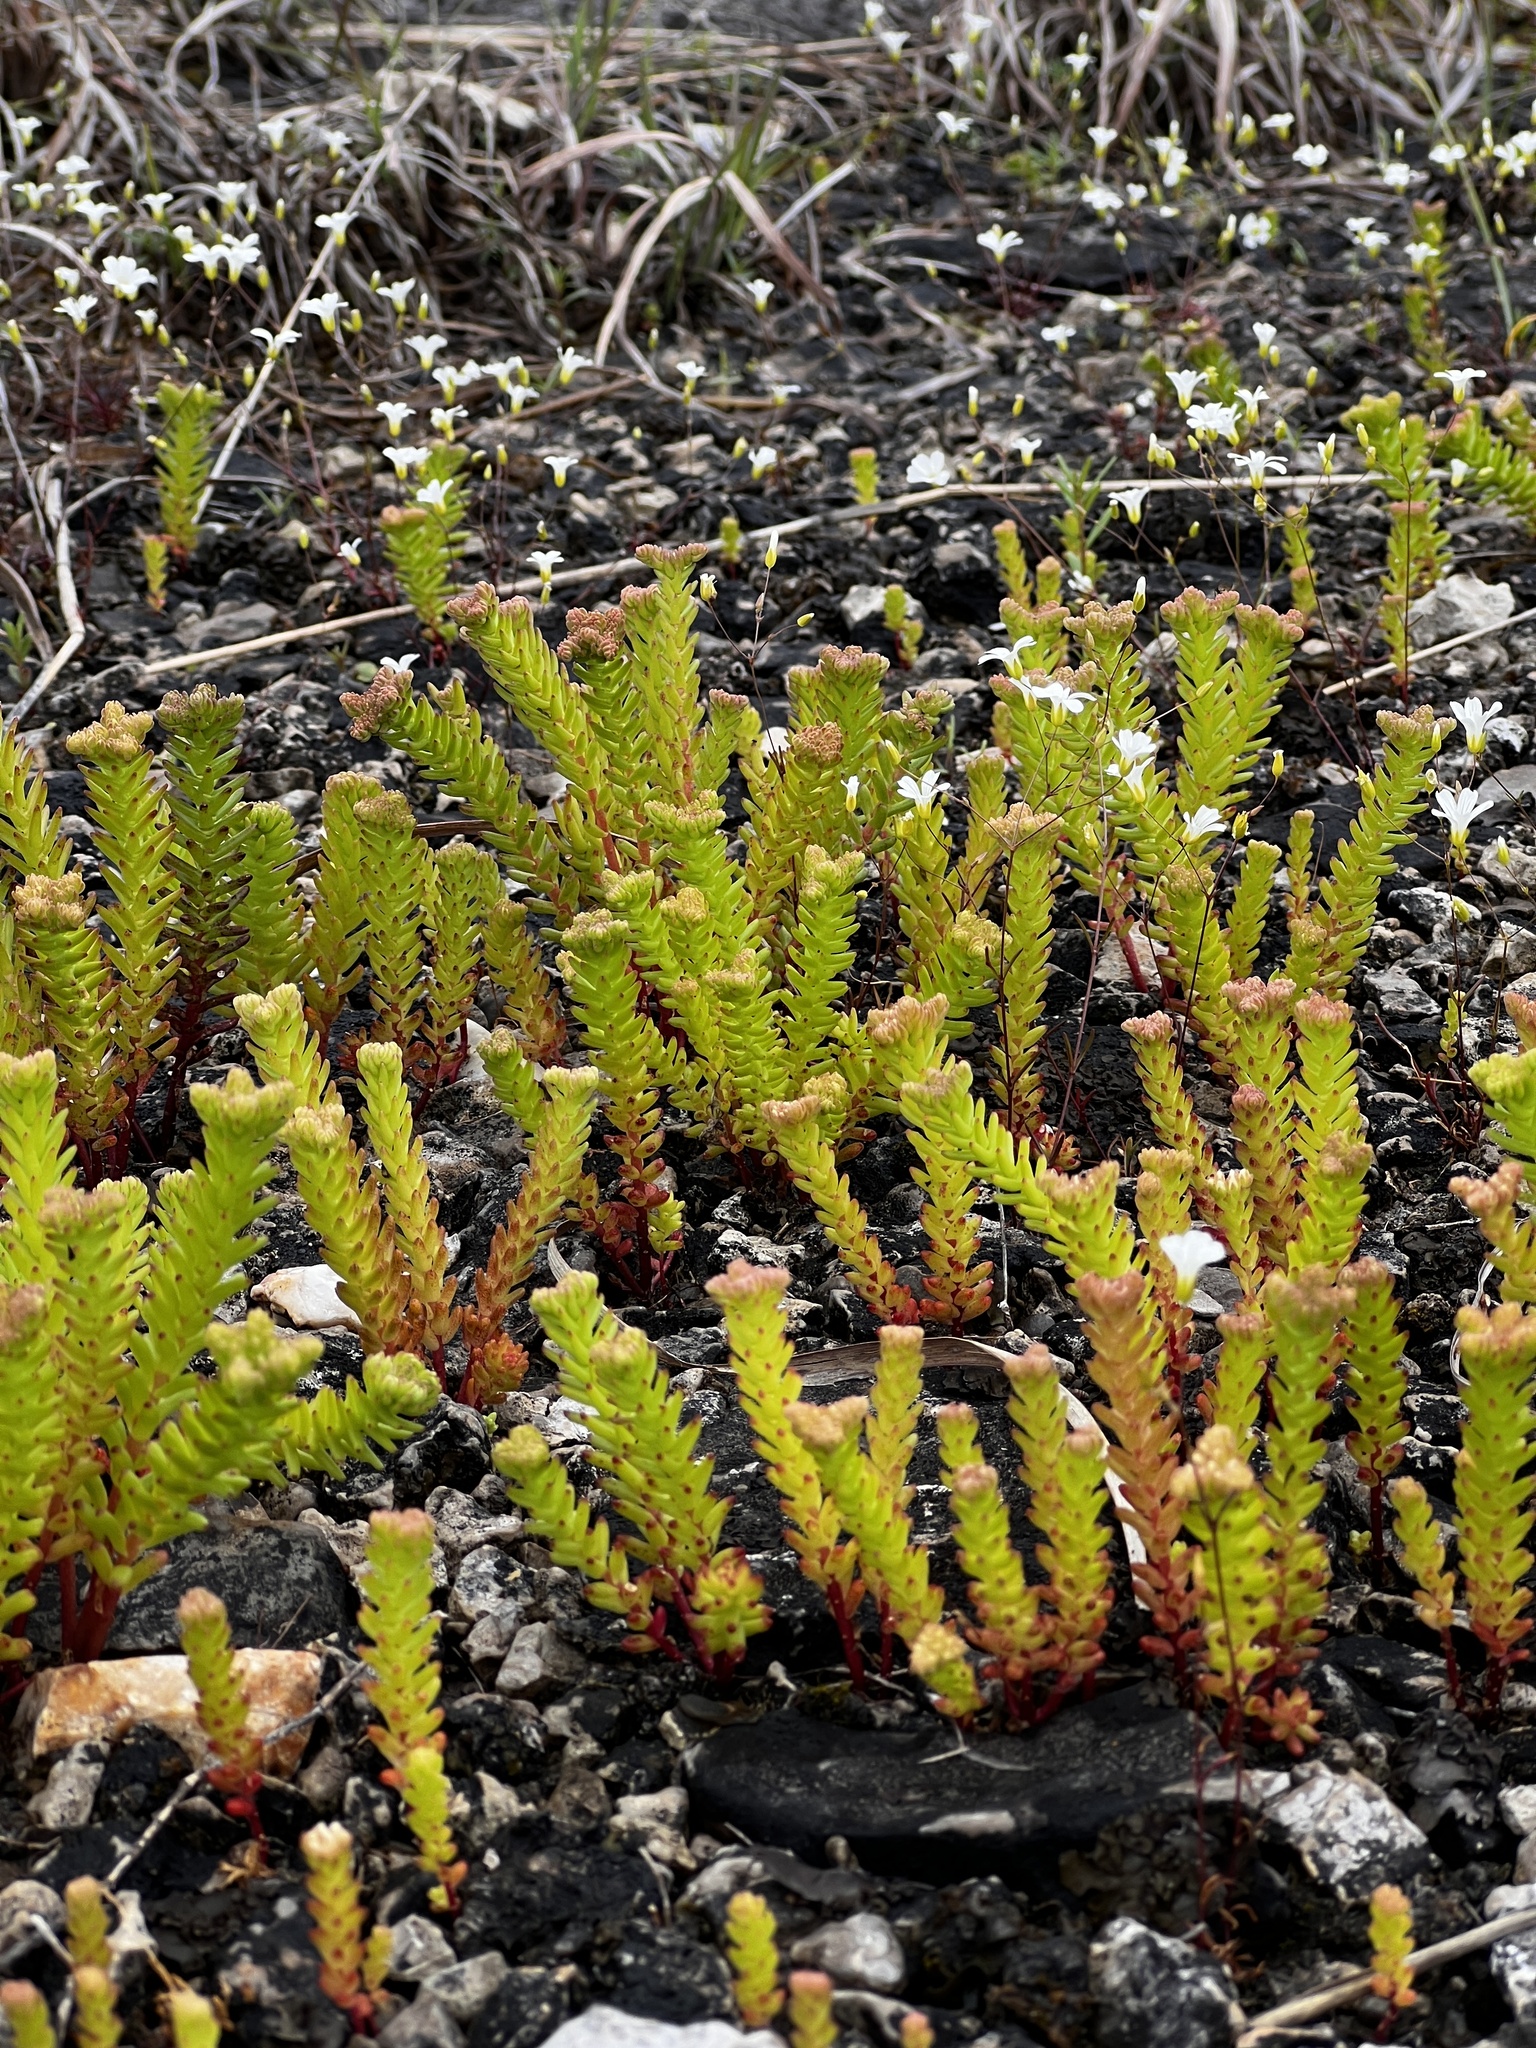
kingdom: Plantae
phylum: Tracheophyta
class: Magnoliopsida
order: Saxifragales
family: Crassulaceae
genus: Sedum
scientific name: Sedum pulchellum
